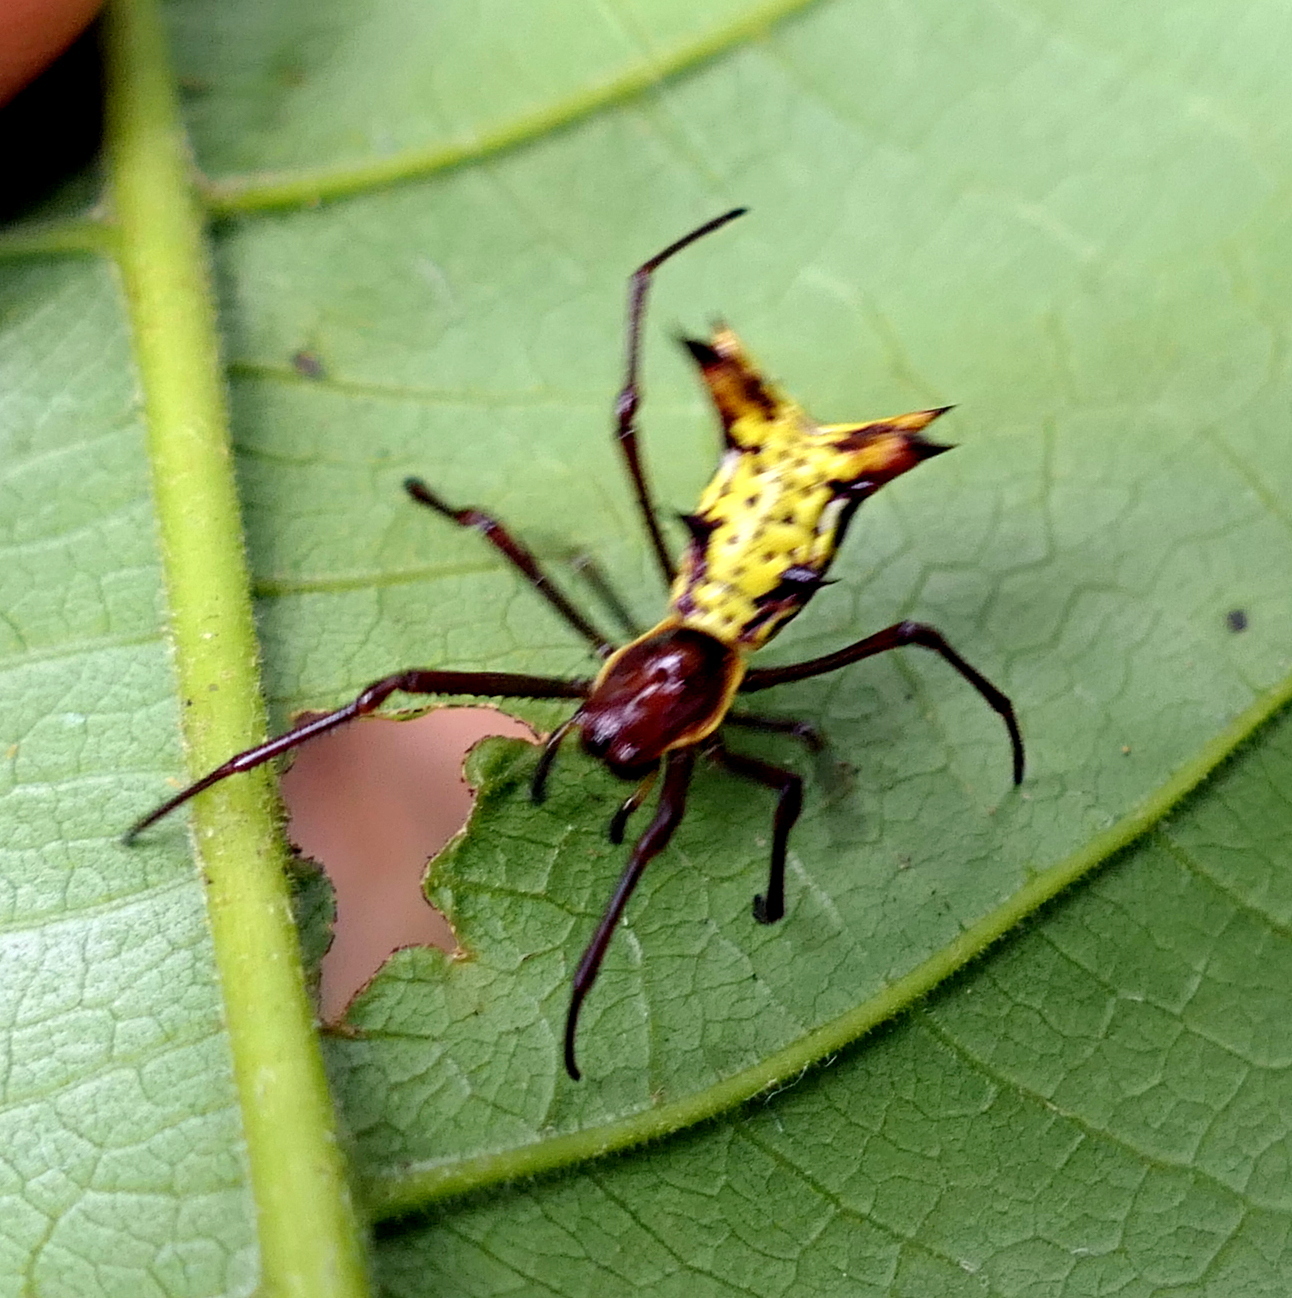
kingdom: Animalia
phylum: Arthropoda
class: Arachnida
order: Araneae
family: Araneidae
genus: Micrathena
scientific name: Micrathena fissispina
